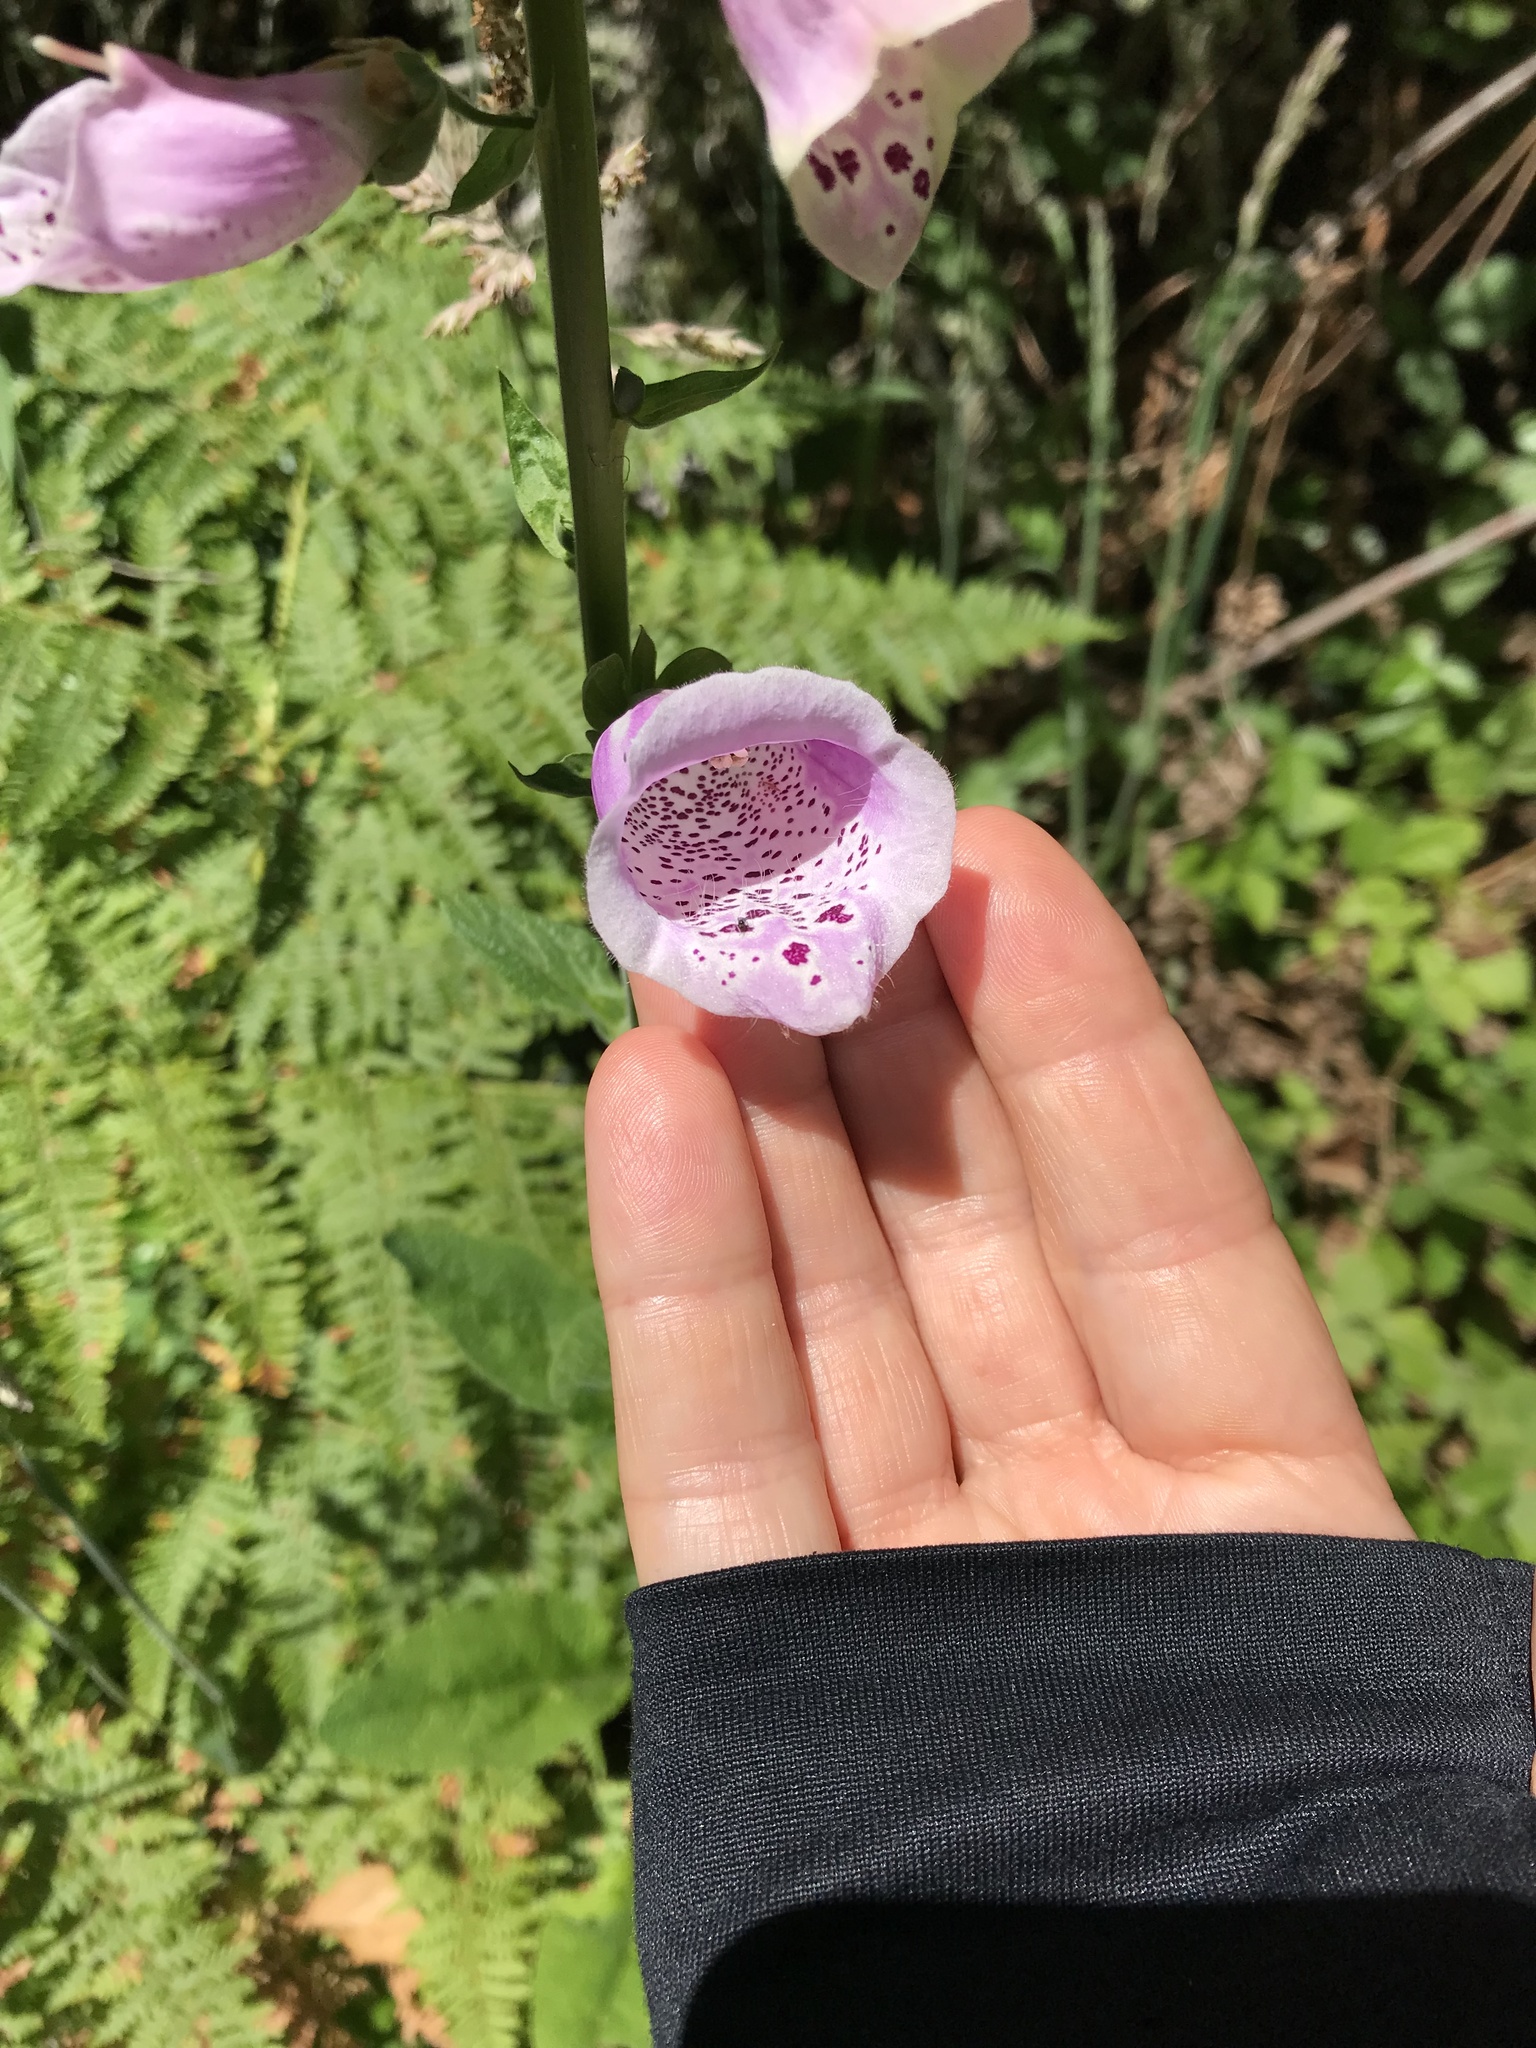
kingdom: Plantae
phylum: Tracheophyta
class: Magnoliopsida
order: Lamiales
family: Plantaginaceae
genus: Digitalis
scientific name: Digitalis purpurea
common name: Foxglove
